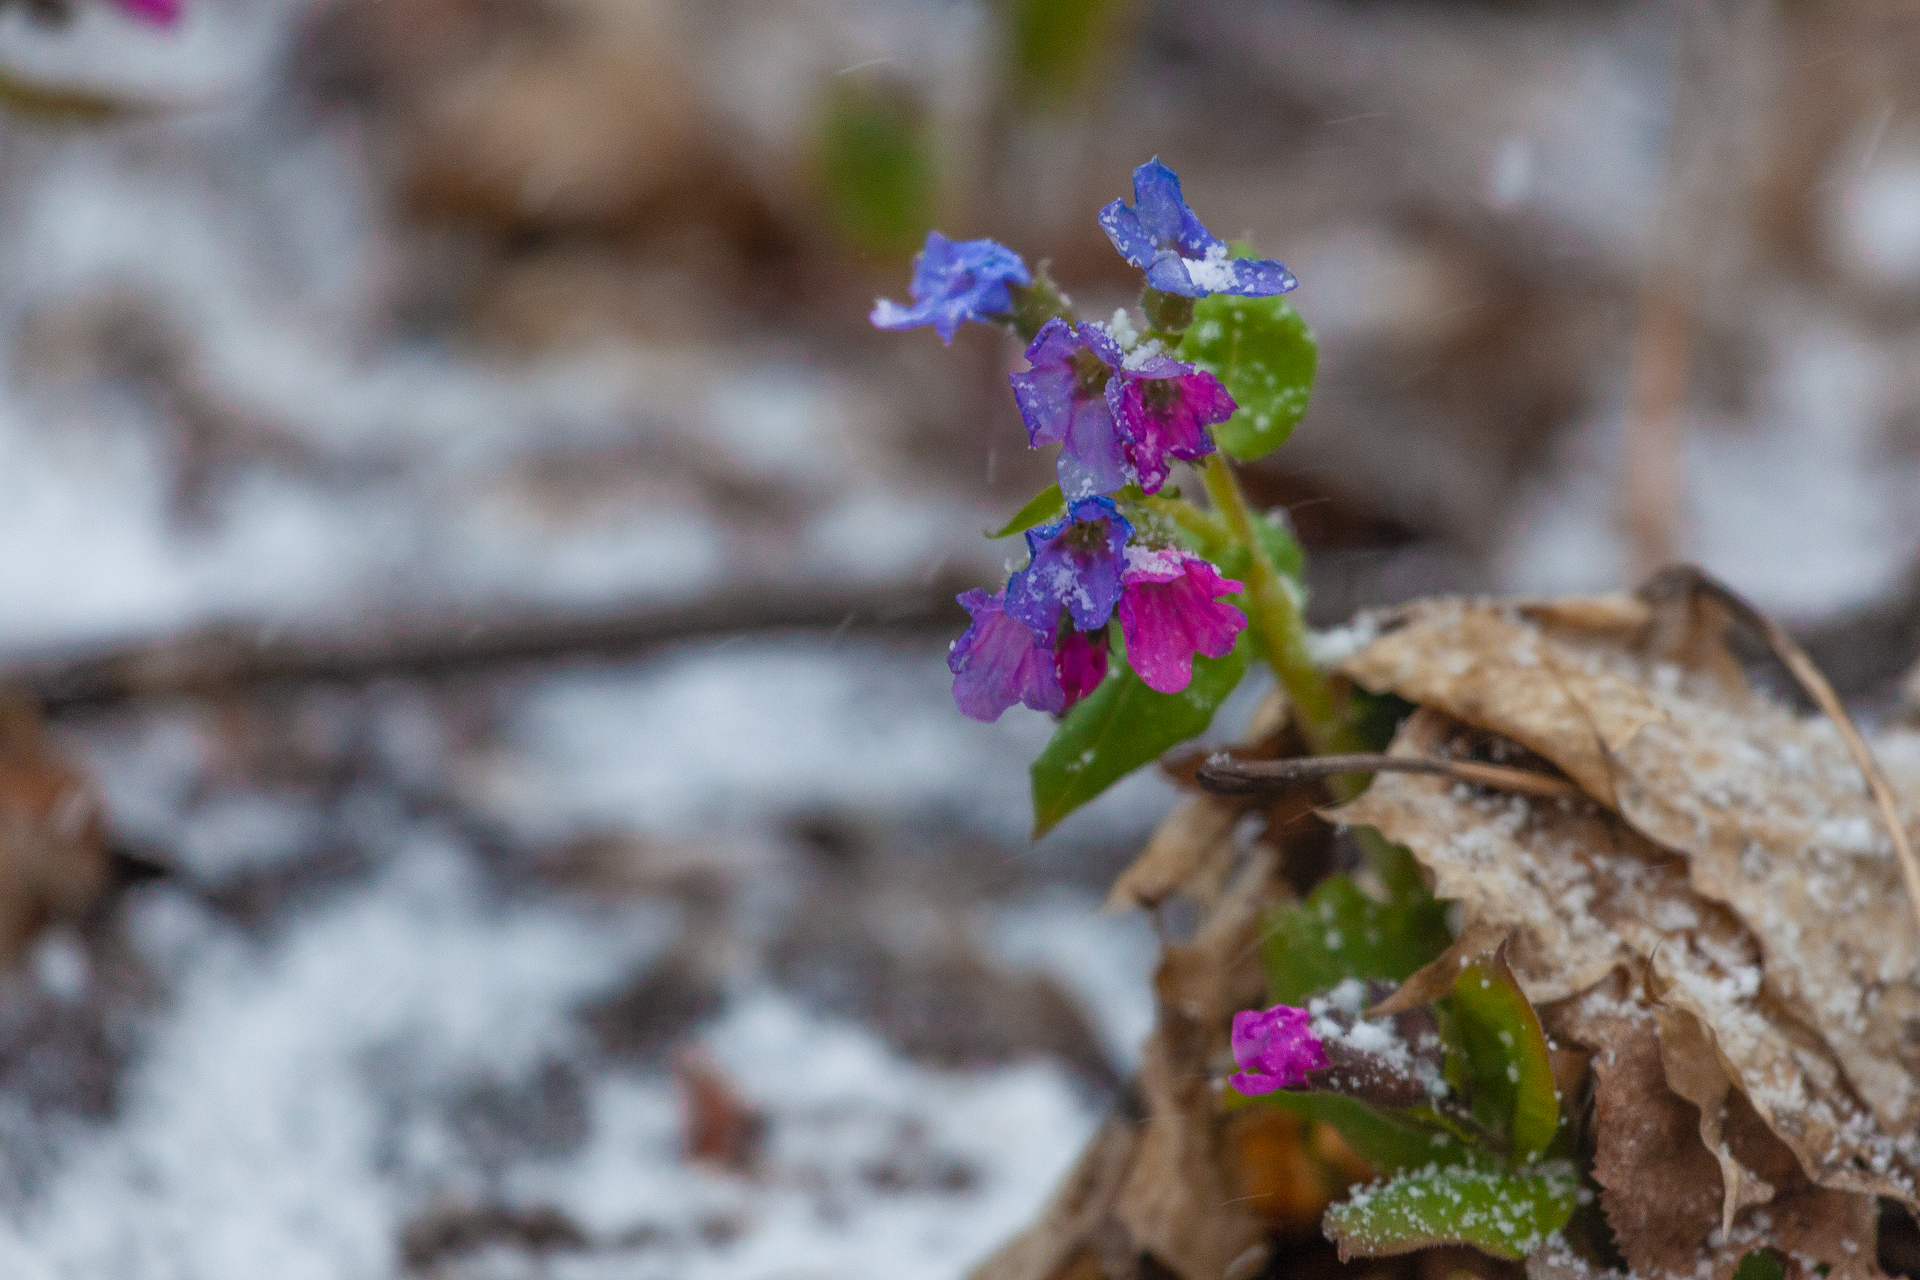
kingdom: Plantae
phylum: Tracheophyta
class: Magnoliopsida
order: Boraginales
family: Boraginaceae
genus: Pulmonaria
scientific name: Pulmonaria obscura
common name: Suffolk lungwort
